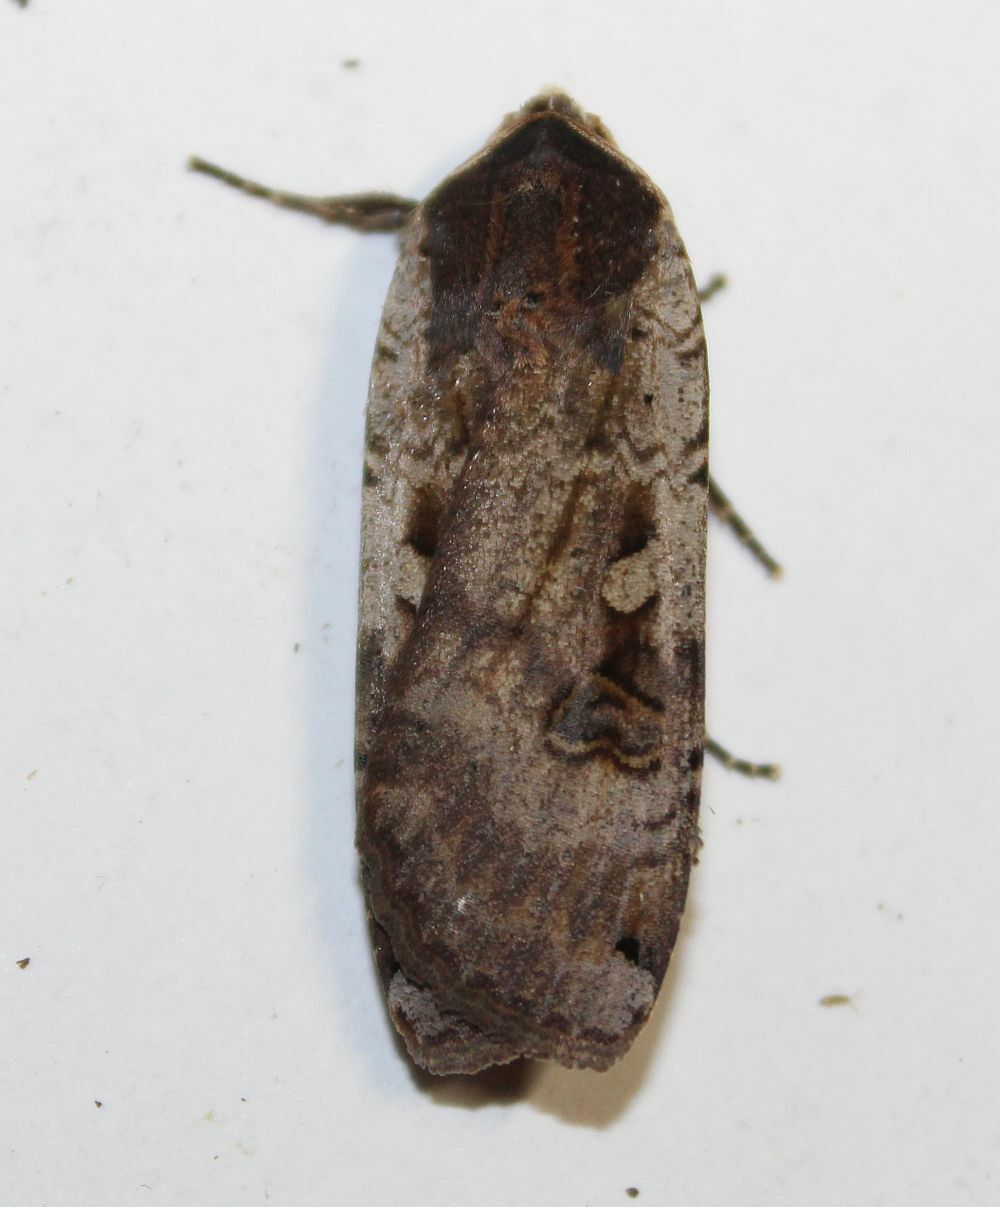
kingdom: Animalia
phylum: Arthropoda
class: Insecta
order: Lepidoptera
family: Noctuidae
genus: Noctua
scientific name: Noctua pronuba
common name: Large yellow underwing
